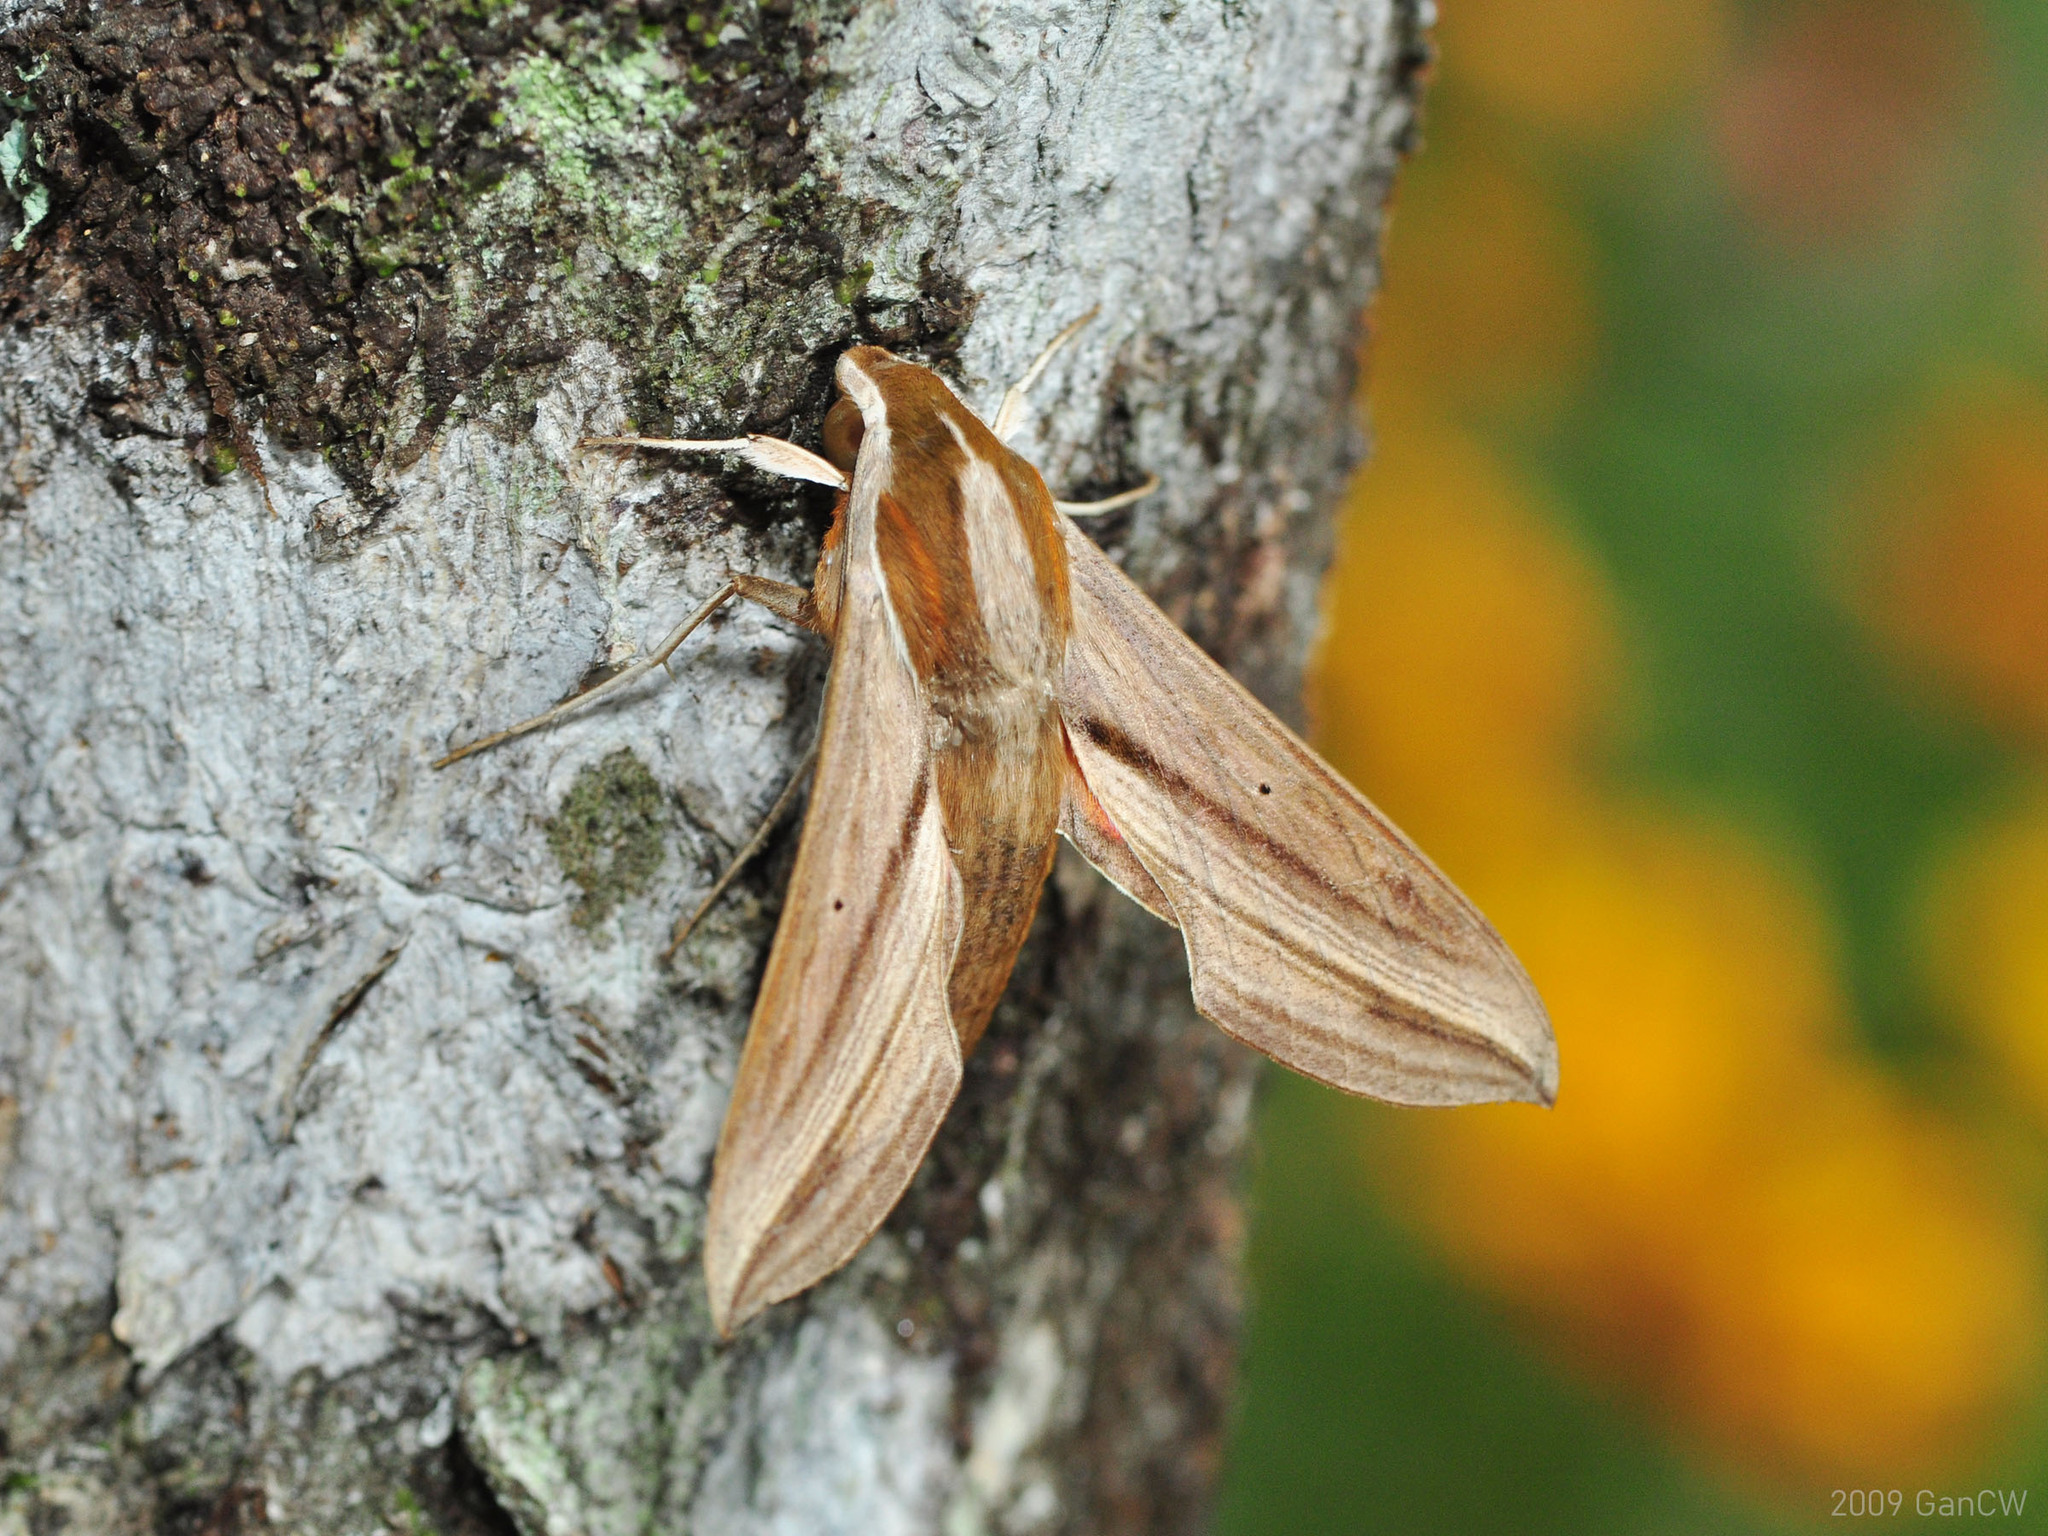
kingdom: Animalia
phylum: Arthropoda
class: Insecta
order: Lepidoptera
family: Sphingidae
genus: Hippotion
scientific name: Hippotion boerhaviae
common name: Hippotion sphinx moth
